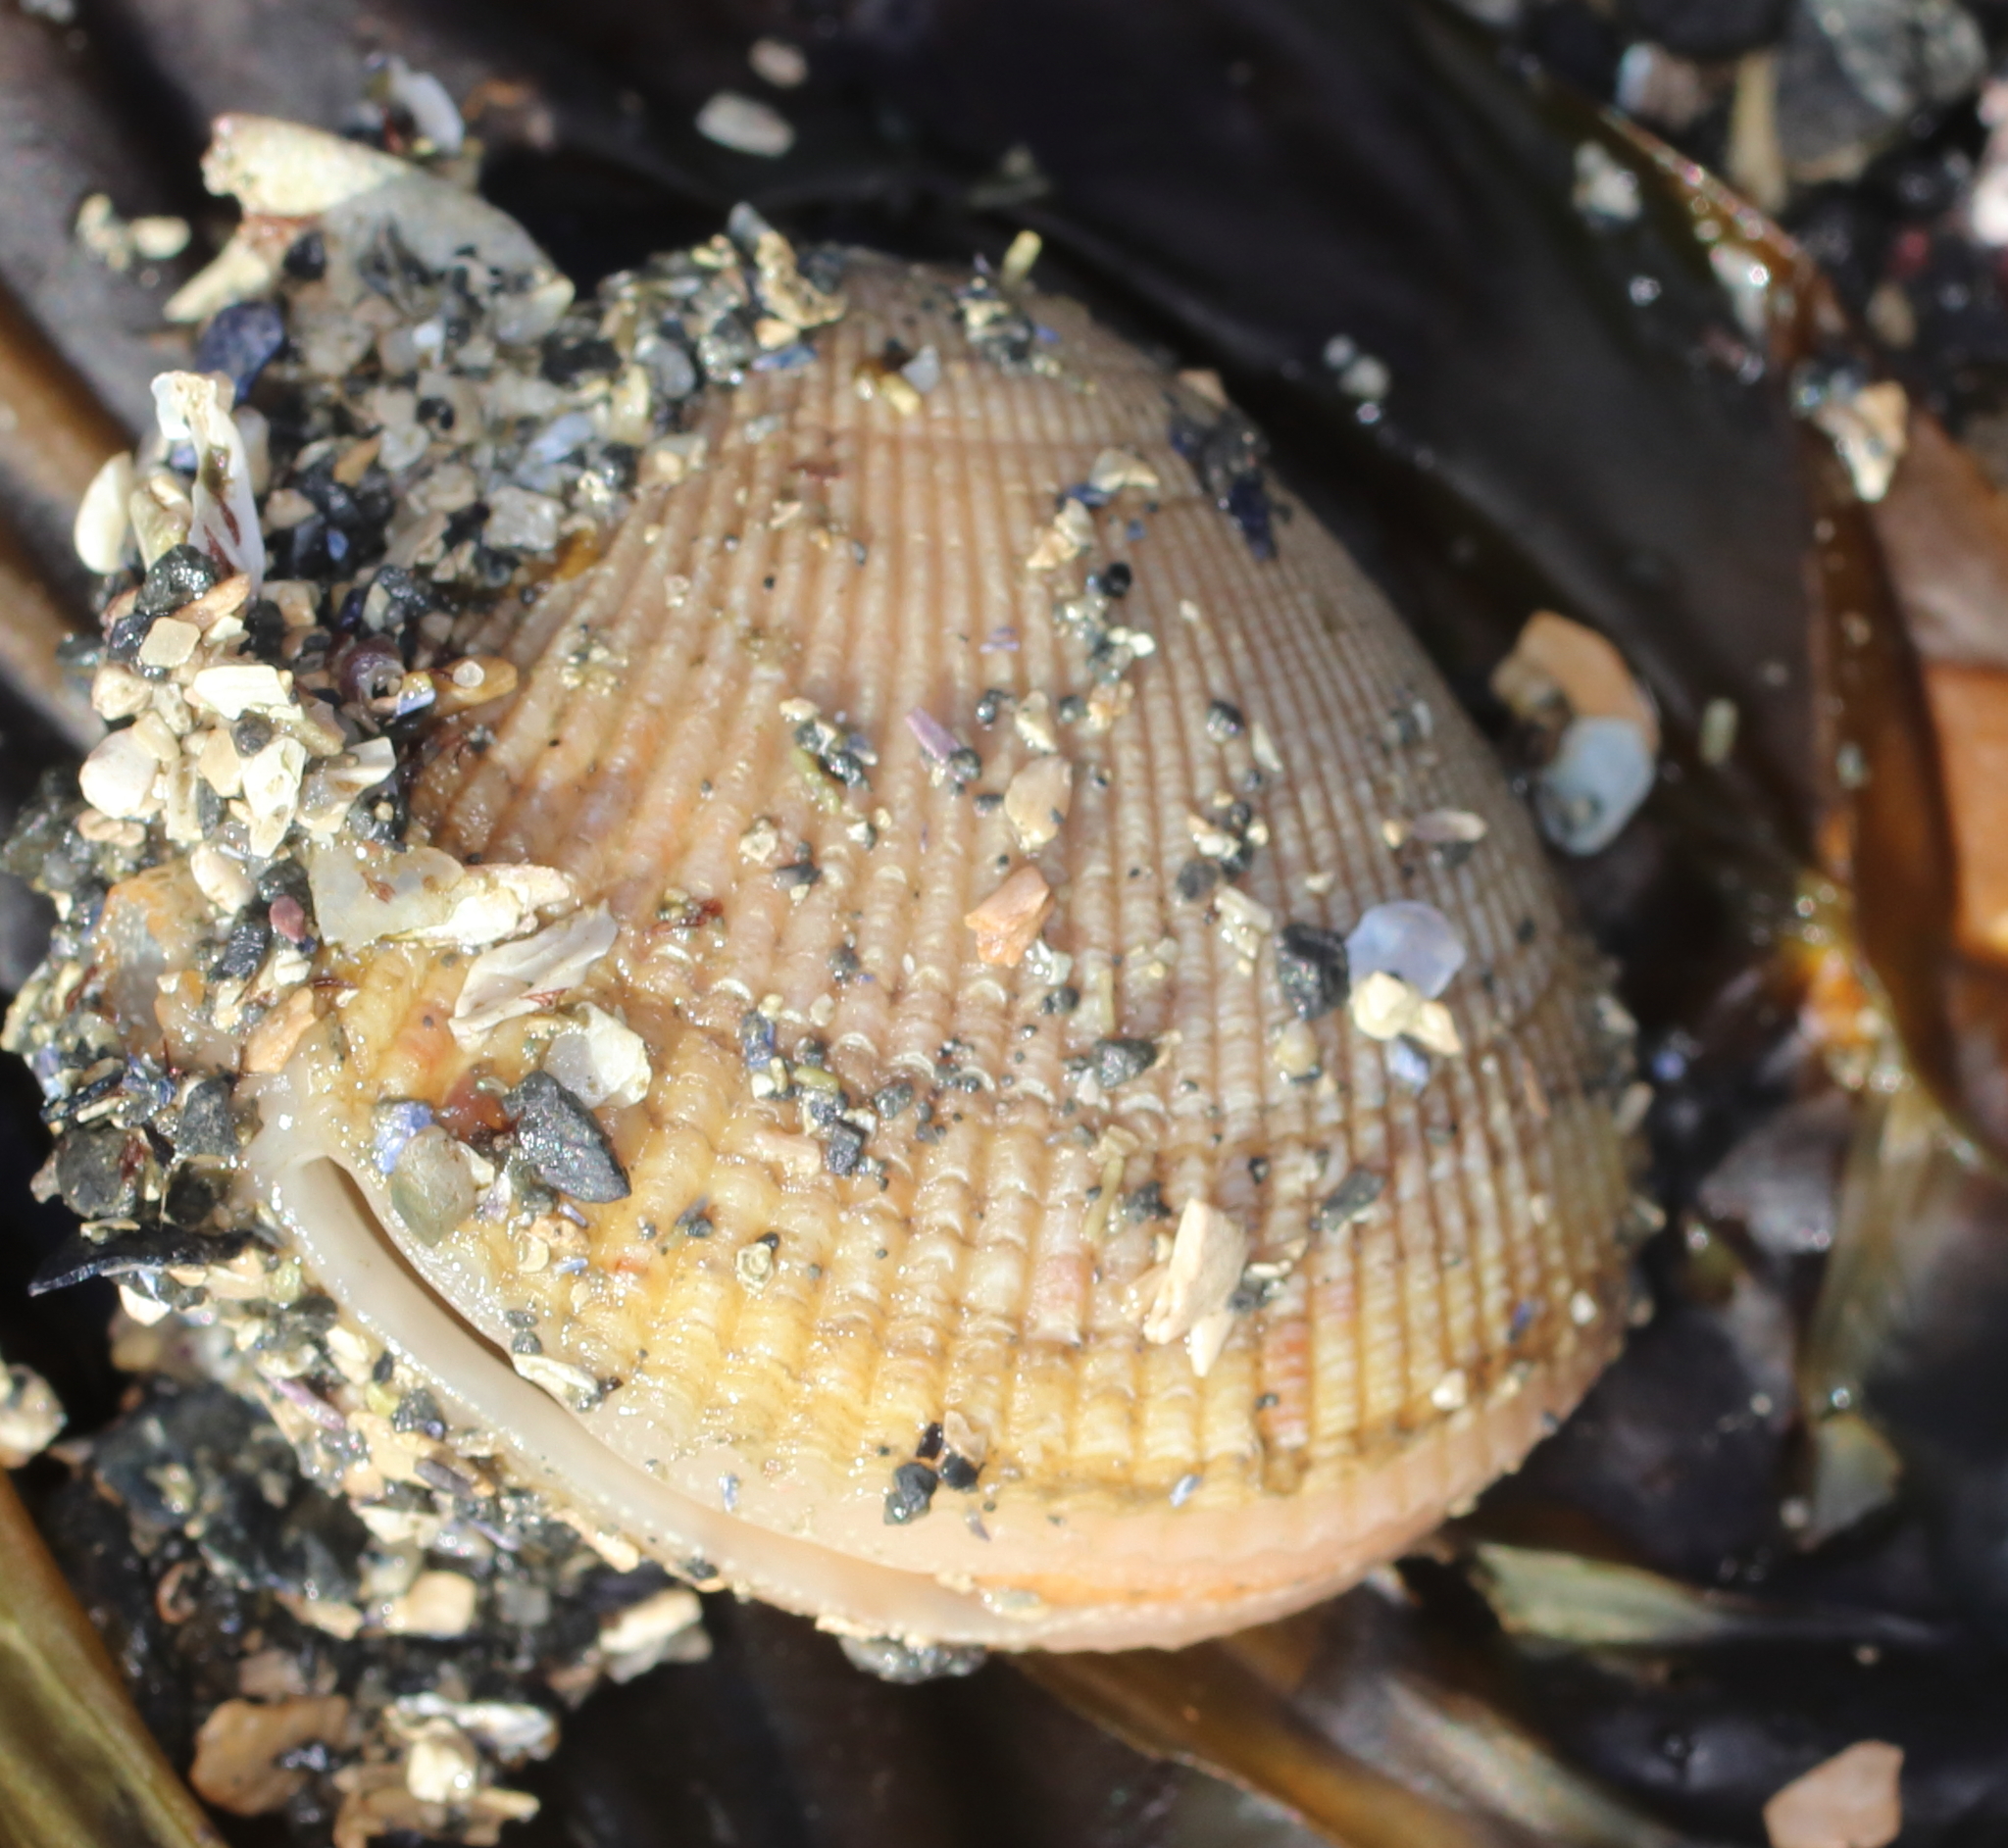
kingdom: Animalia
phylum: Mollusca
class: Bivalvia
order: Cardiida
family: Cardiidae
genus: Clinocardium
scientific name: Clinocardium nuttallii
